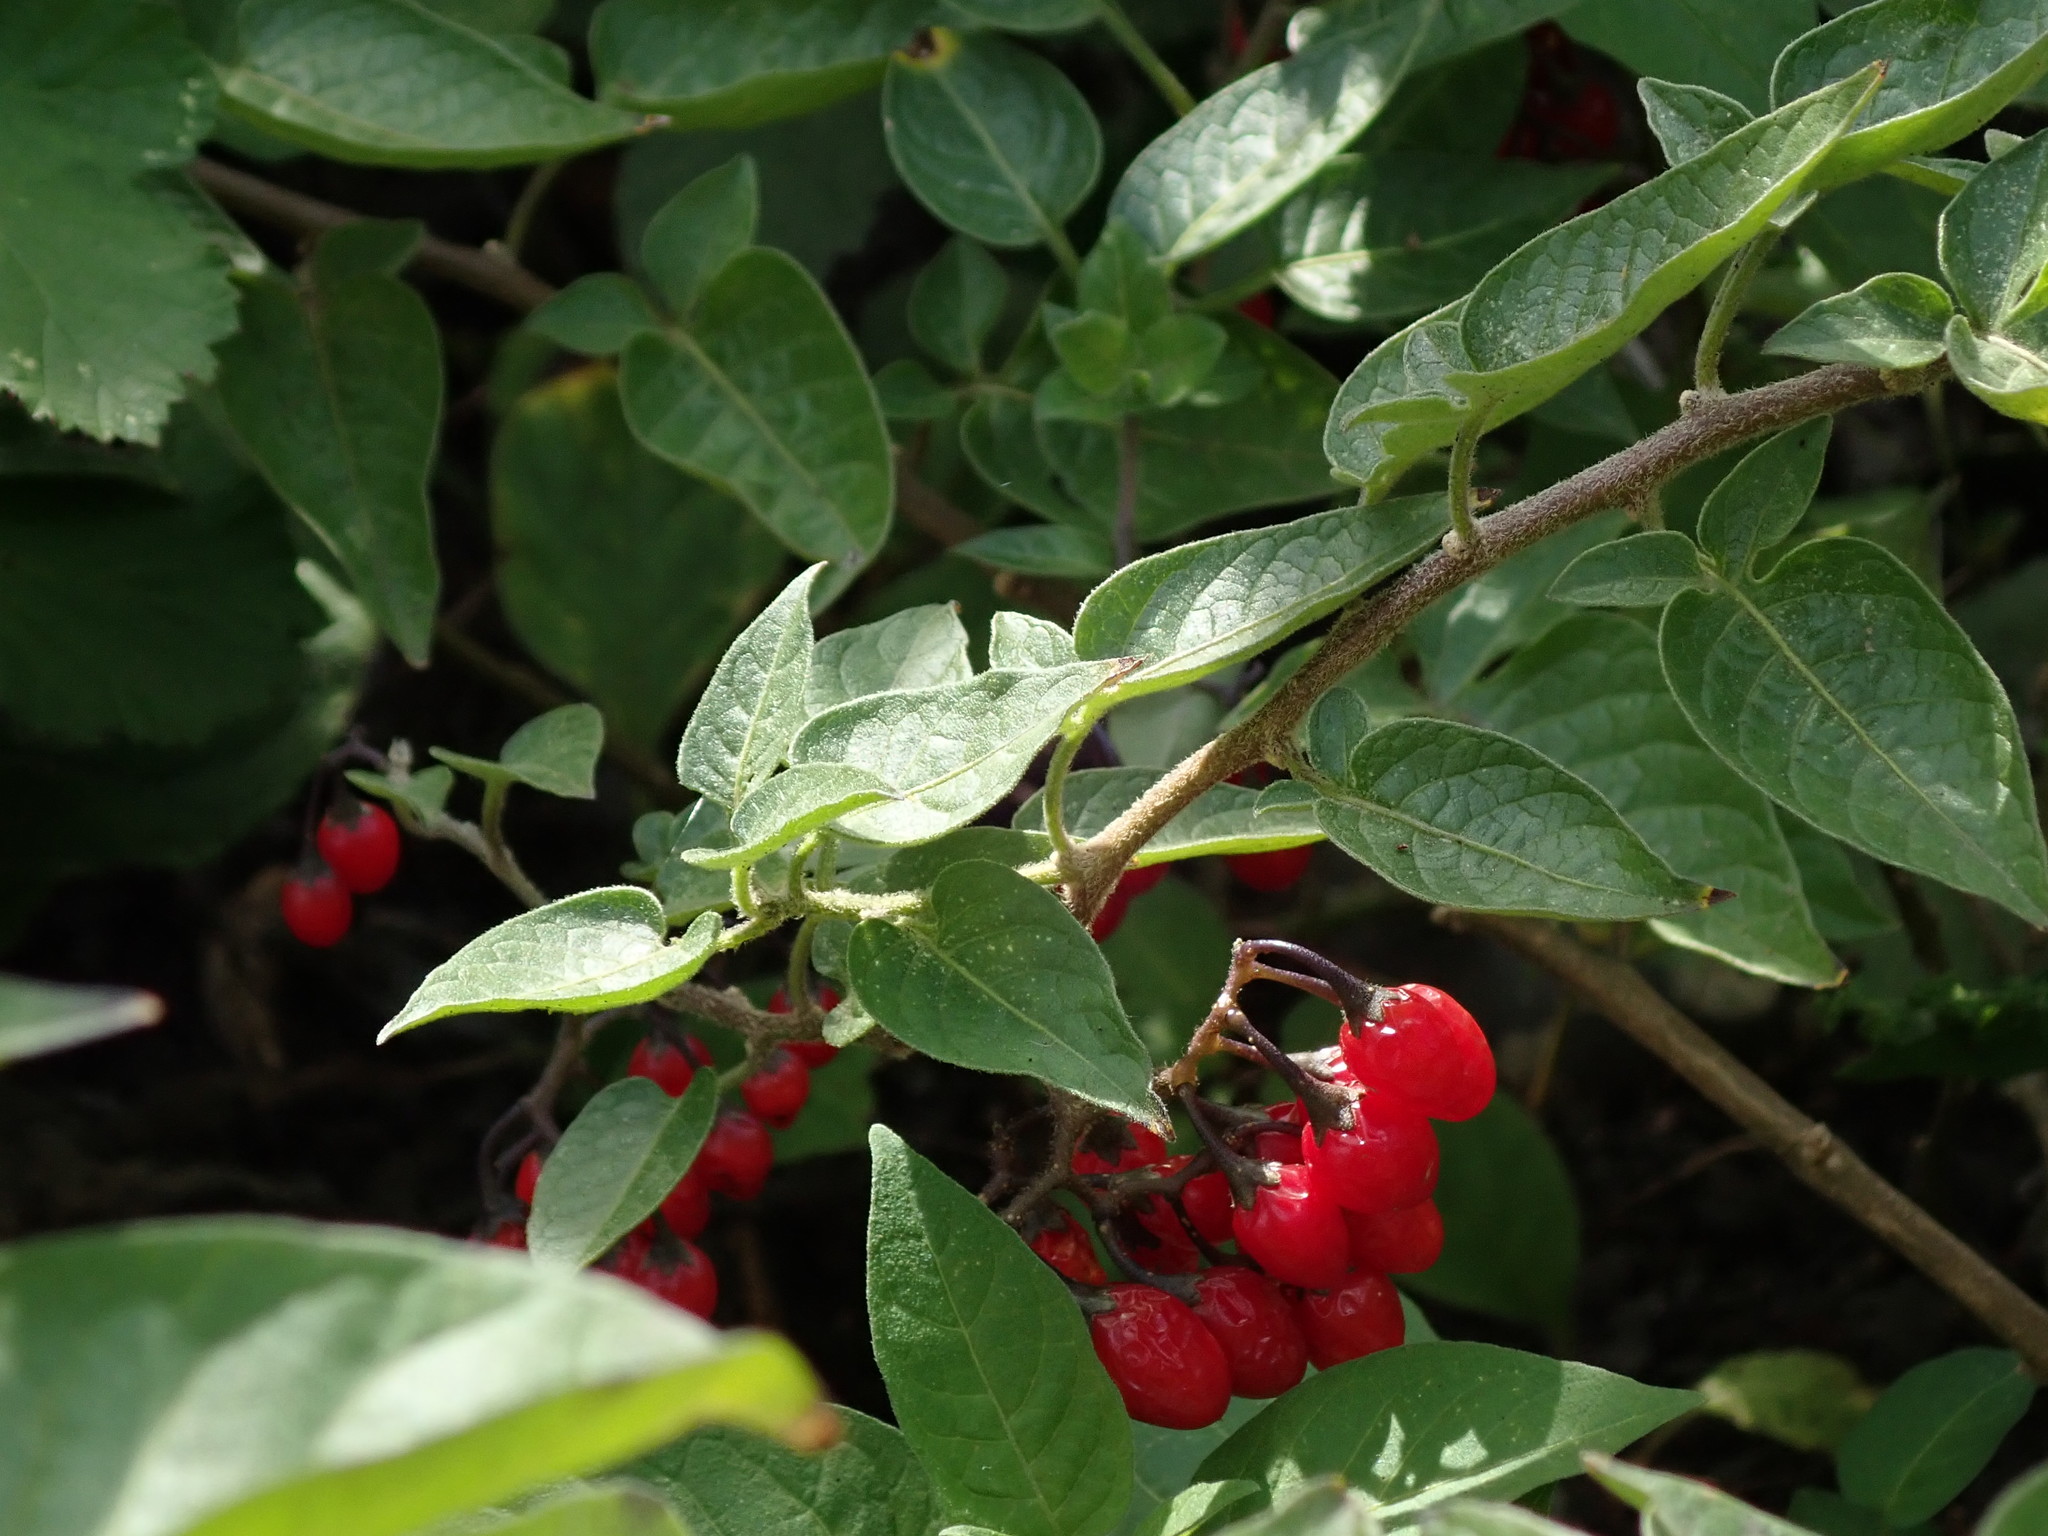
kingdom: Plantae
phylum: Tracheophyta
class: Magnoliopsida
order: Solanales
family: Solanaceae
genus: Solanum
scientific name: Solanum dulcamara
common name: Climbing nightshade
